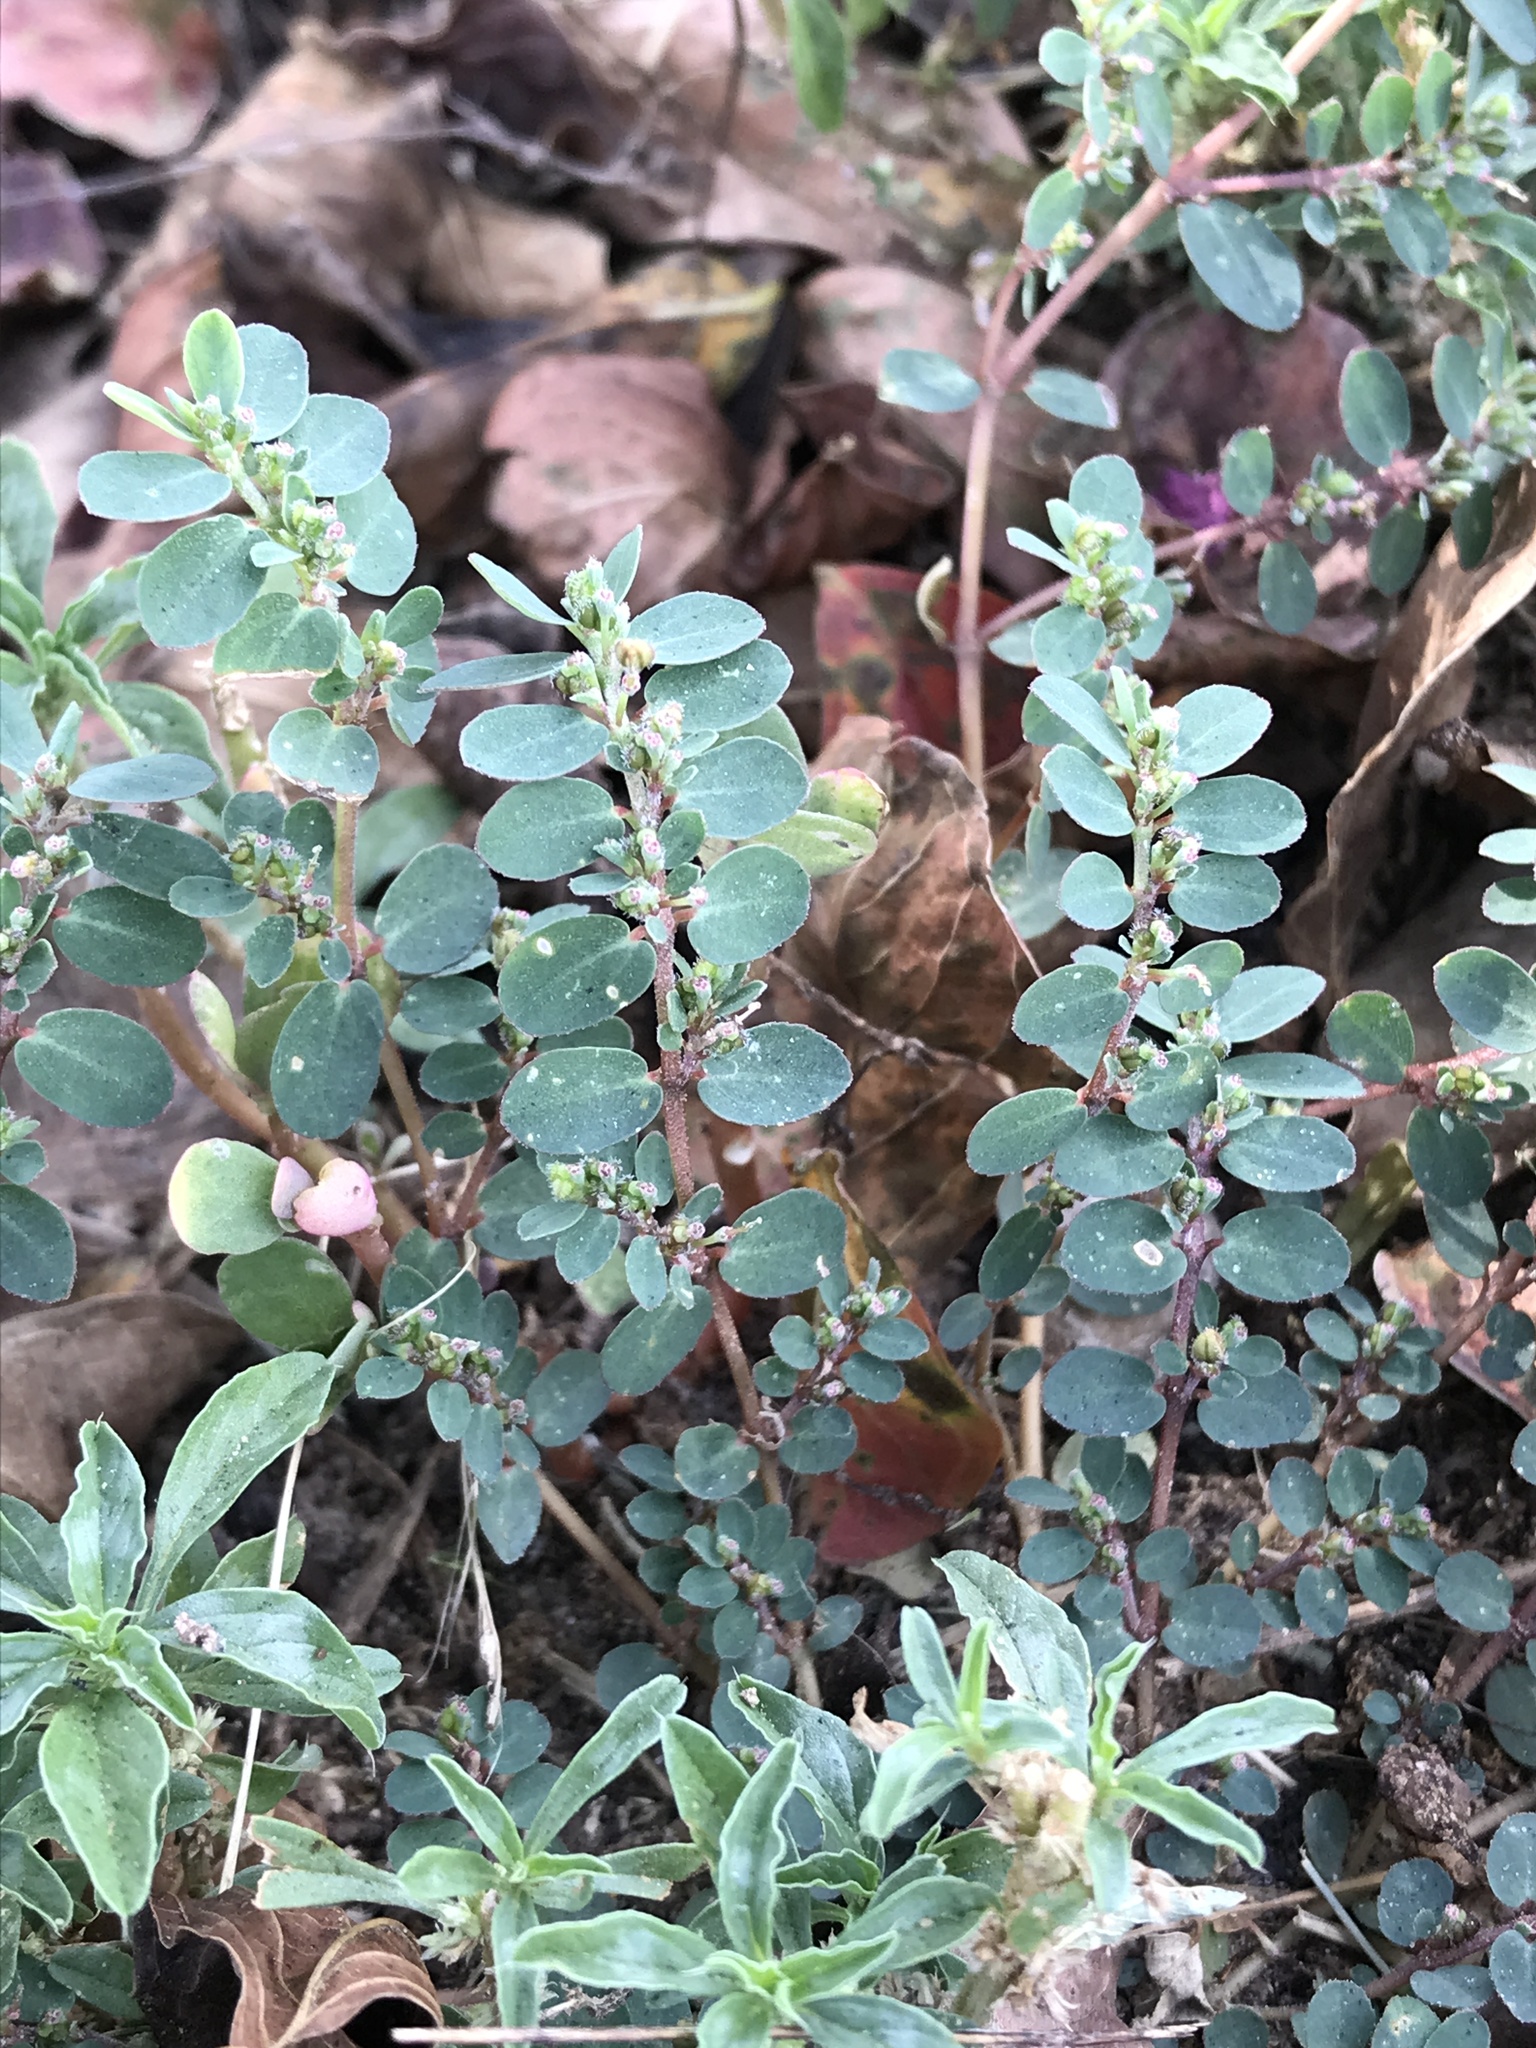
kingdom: Plantae
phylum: Tracheophyta
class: Magnoliopsida
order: Malpighiales
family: Euphorbiaceae
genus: Euphorbia
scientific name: Euphorbia prostrata
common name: Prostrate sandmat
